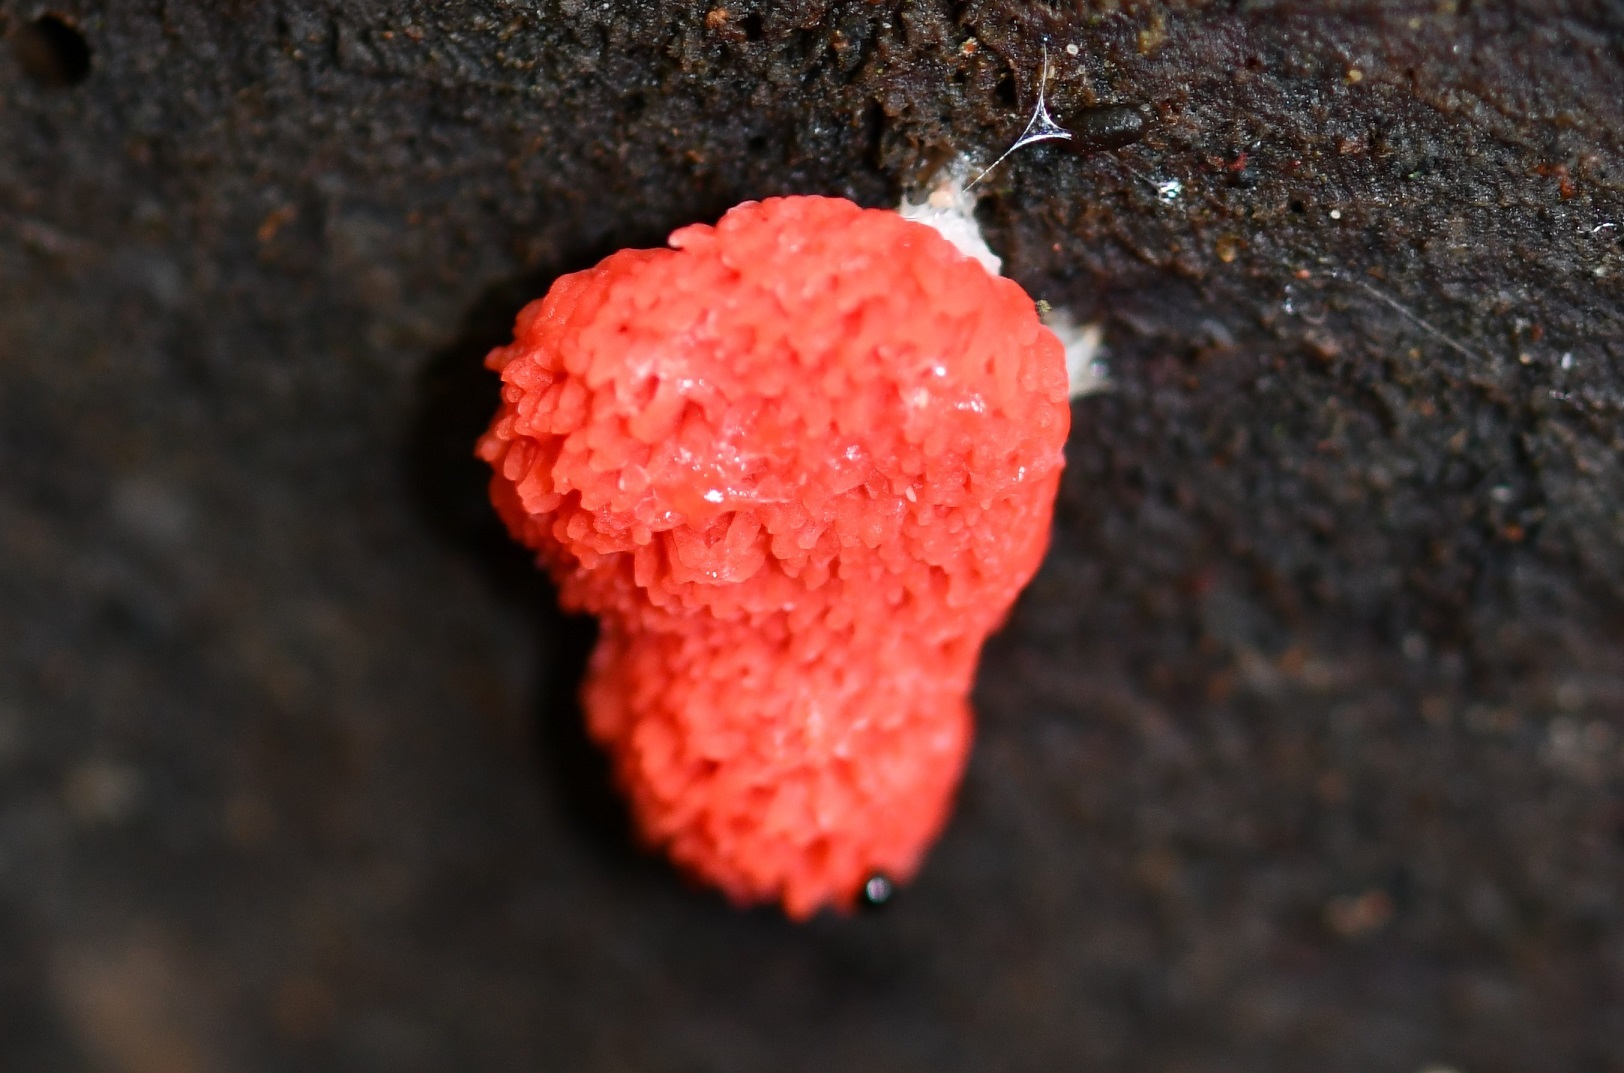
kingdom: Protozoa
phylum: Mycetozoa
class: Myxomycetes
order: Cribrariales
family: Tubiferaceae
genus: Tubifera
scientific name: Tubifera ferruginosa
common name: Red raspberry slime mold
